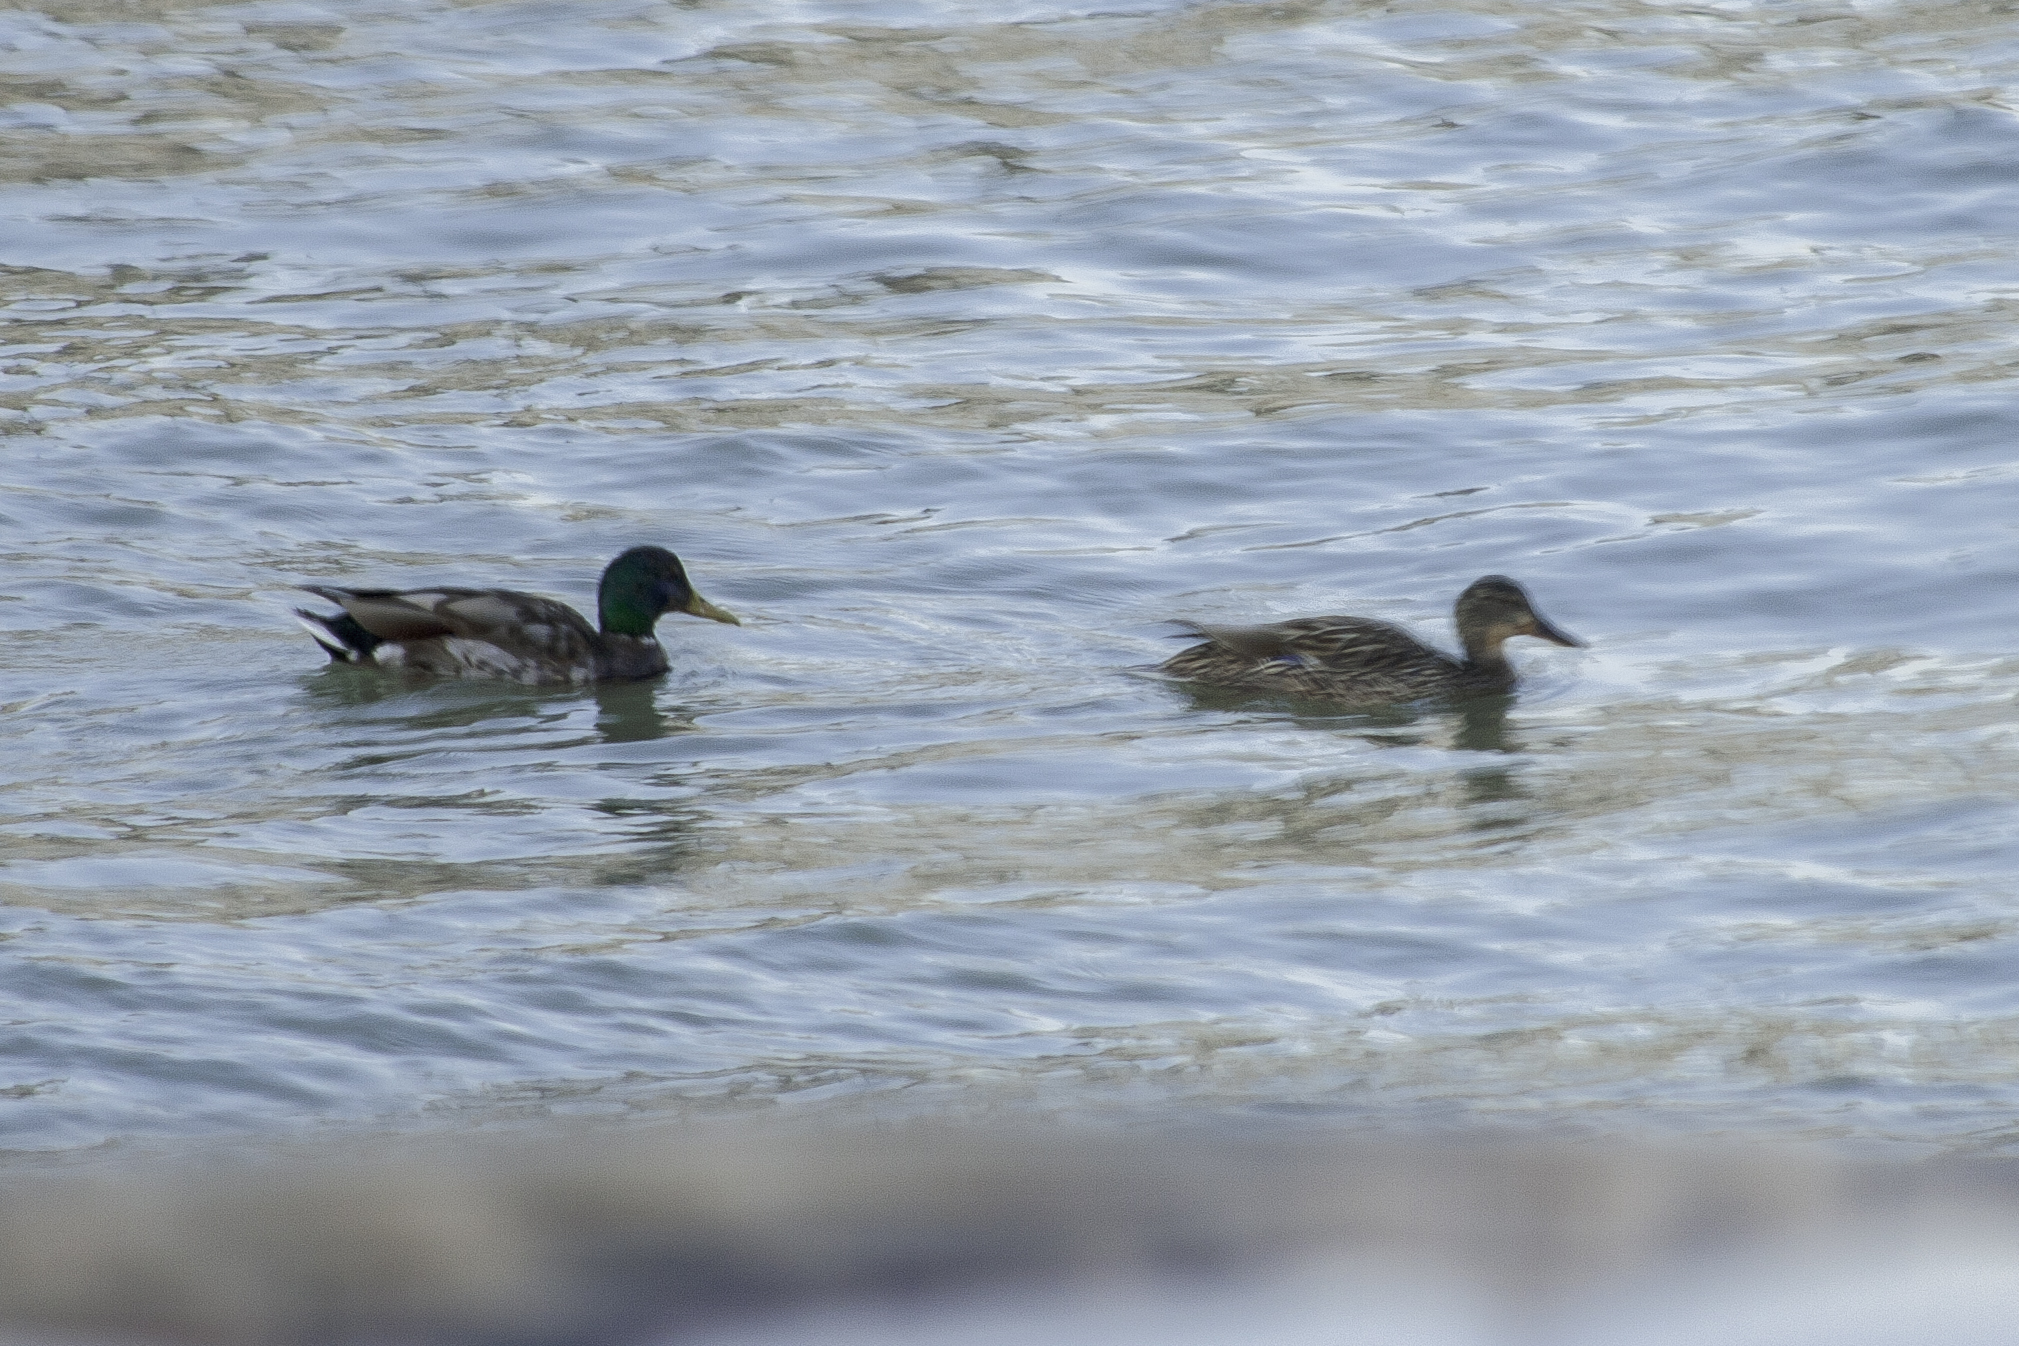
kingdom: Animalia
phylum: Chordata
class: Aves
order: Anseriformes
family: Anatidae
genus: Anas
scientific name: Anas platyrhynchos
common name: Mallard
